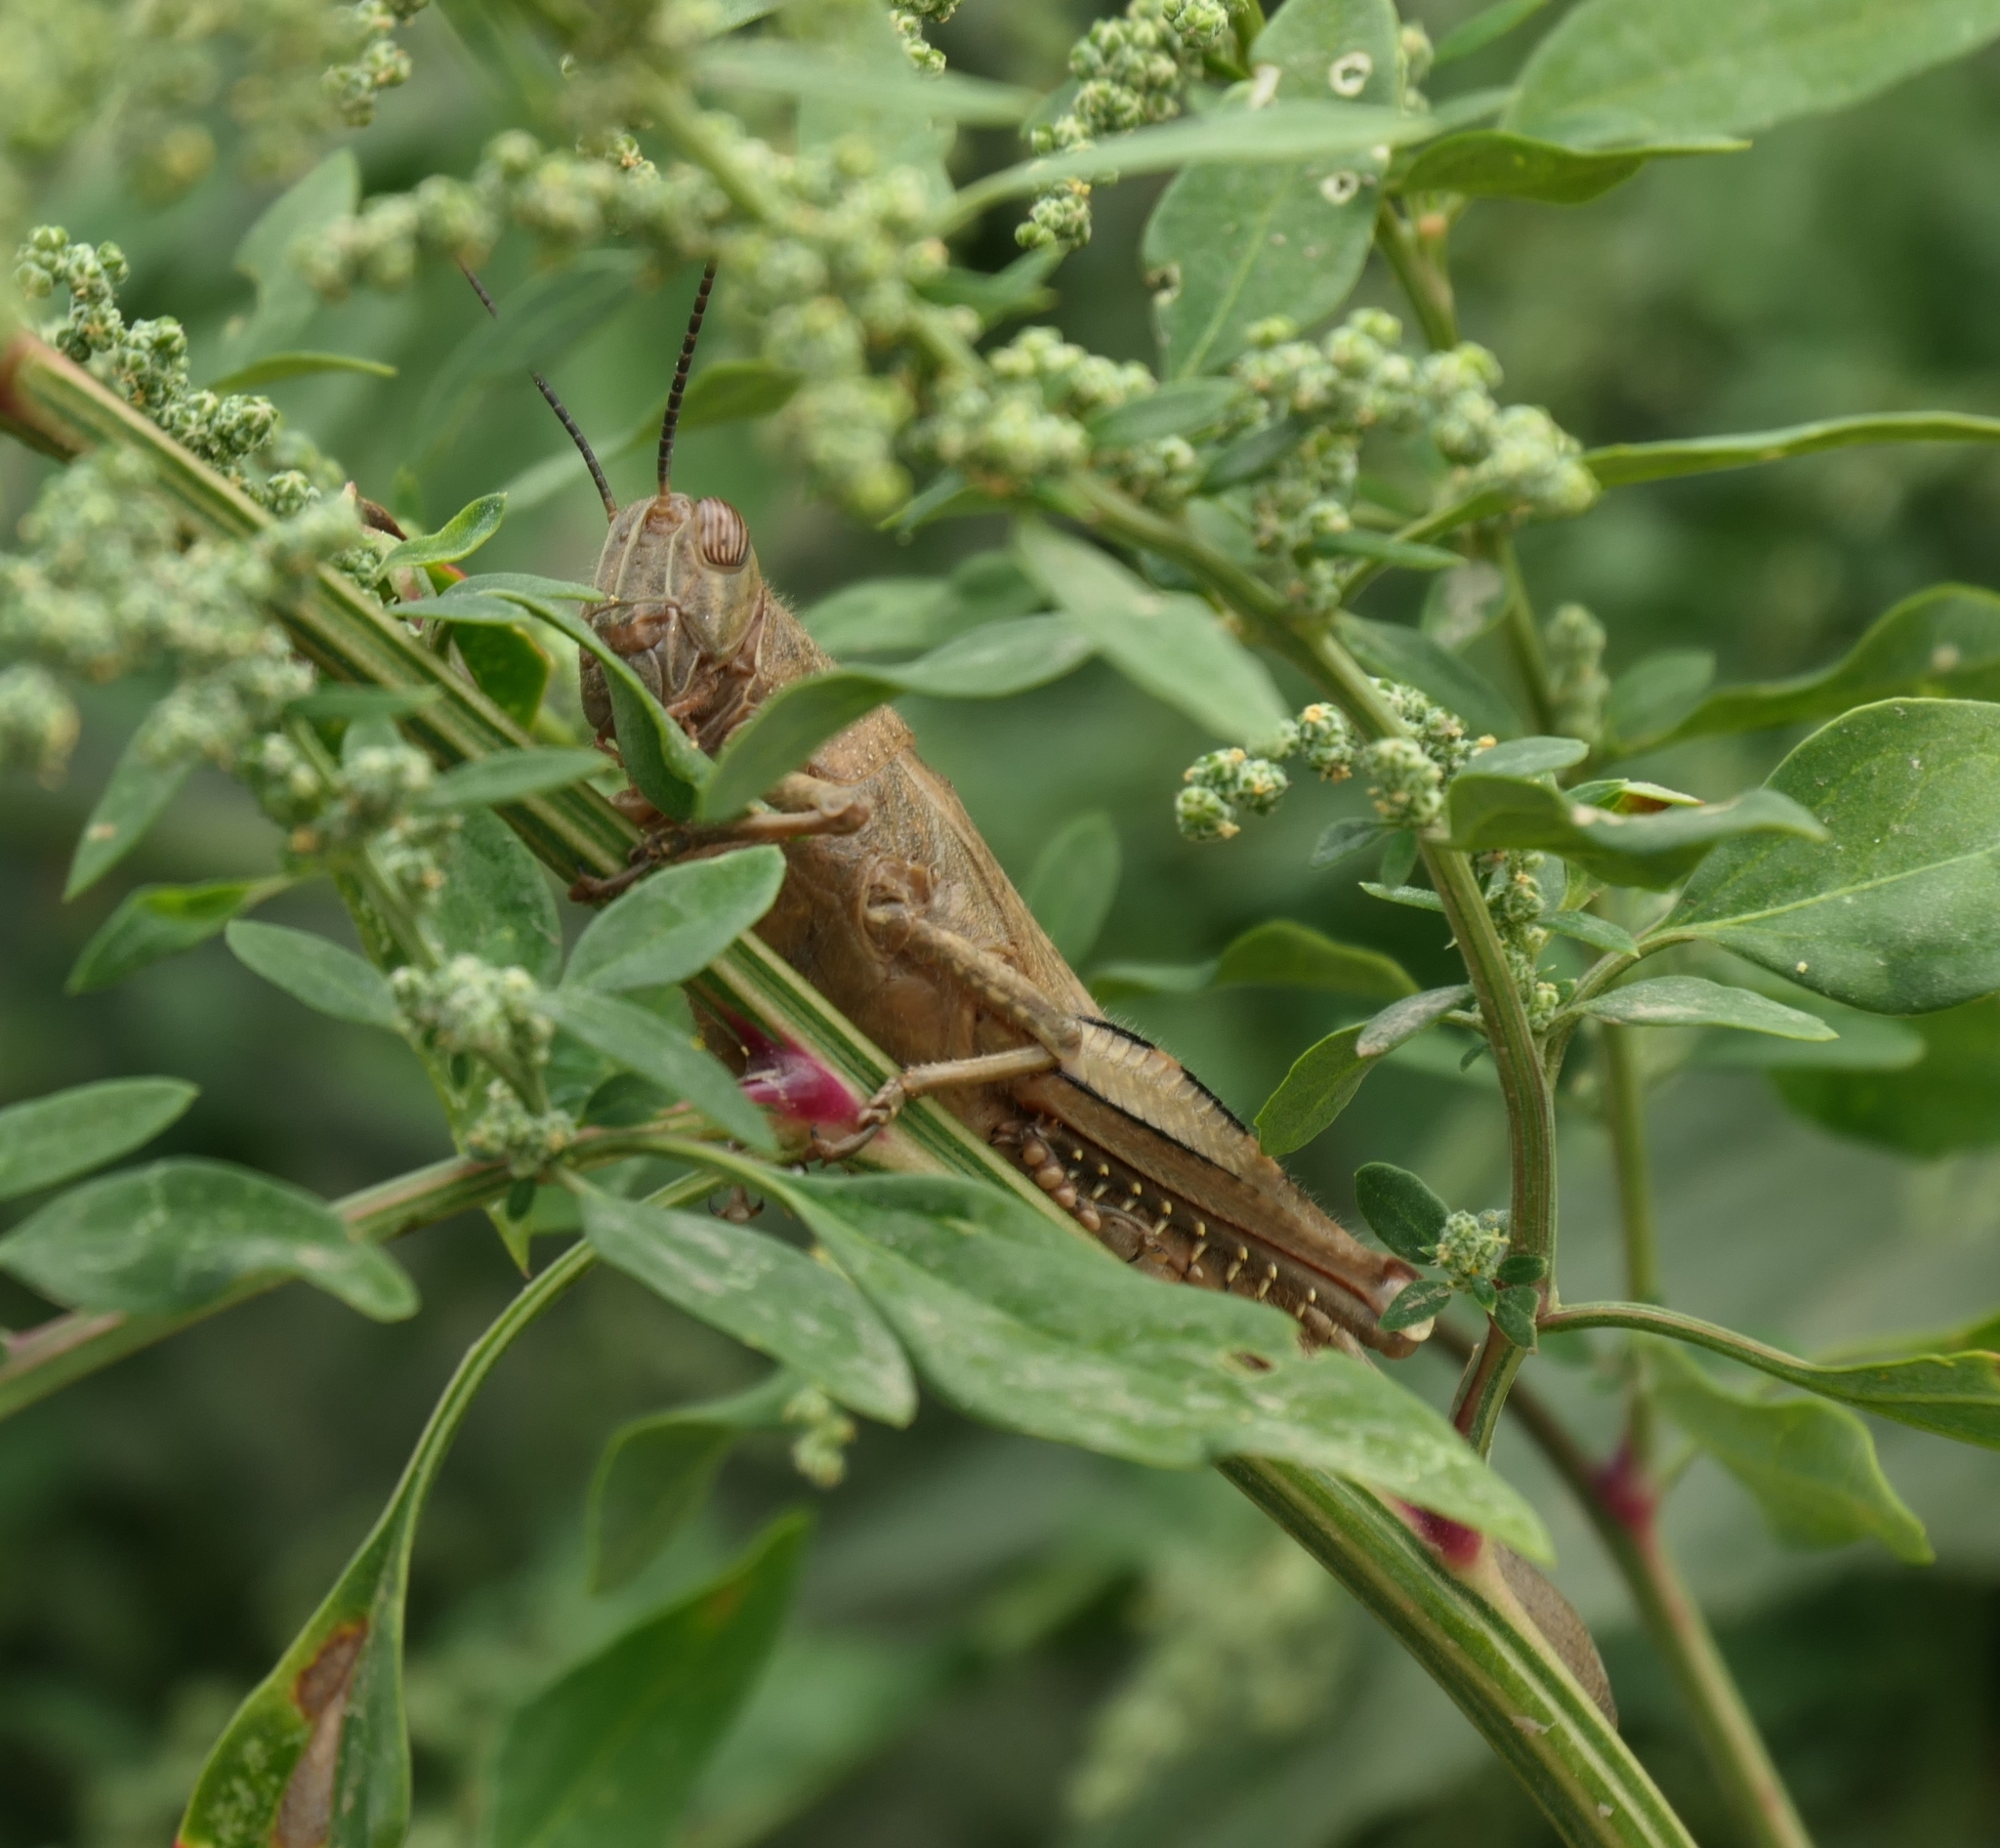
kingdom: Animalia
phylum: Arthropoda
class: Insecta
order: Orthoptera
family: Acrididae
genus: Anacridium
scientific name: Anacridium aegyptium
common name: Egyptian grasshopper
